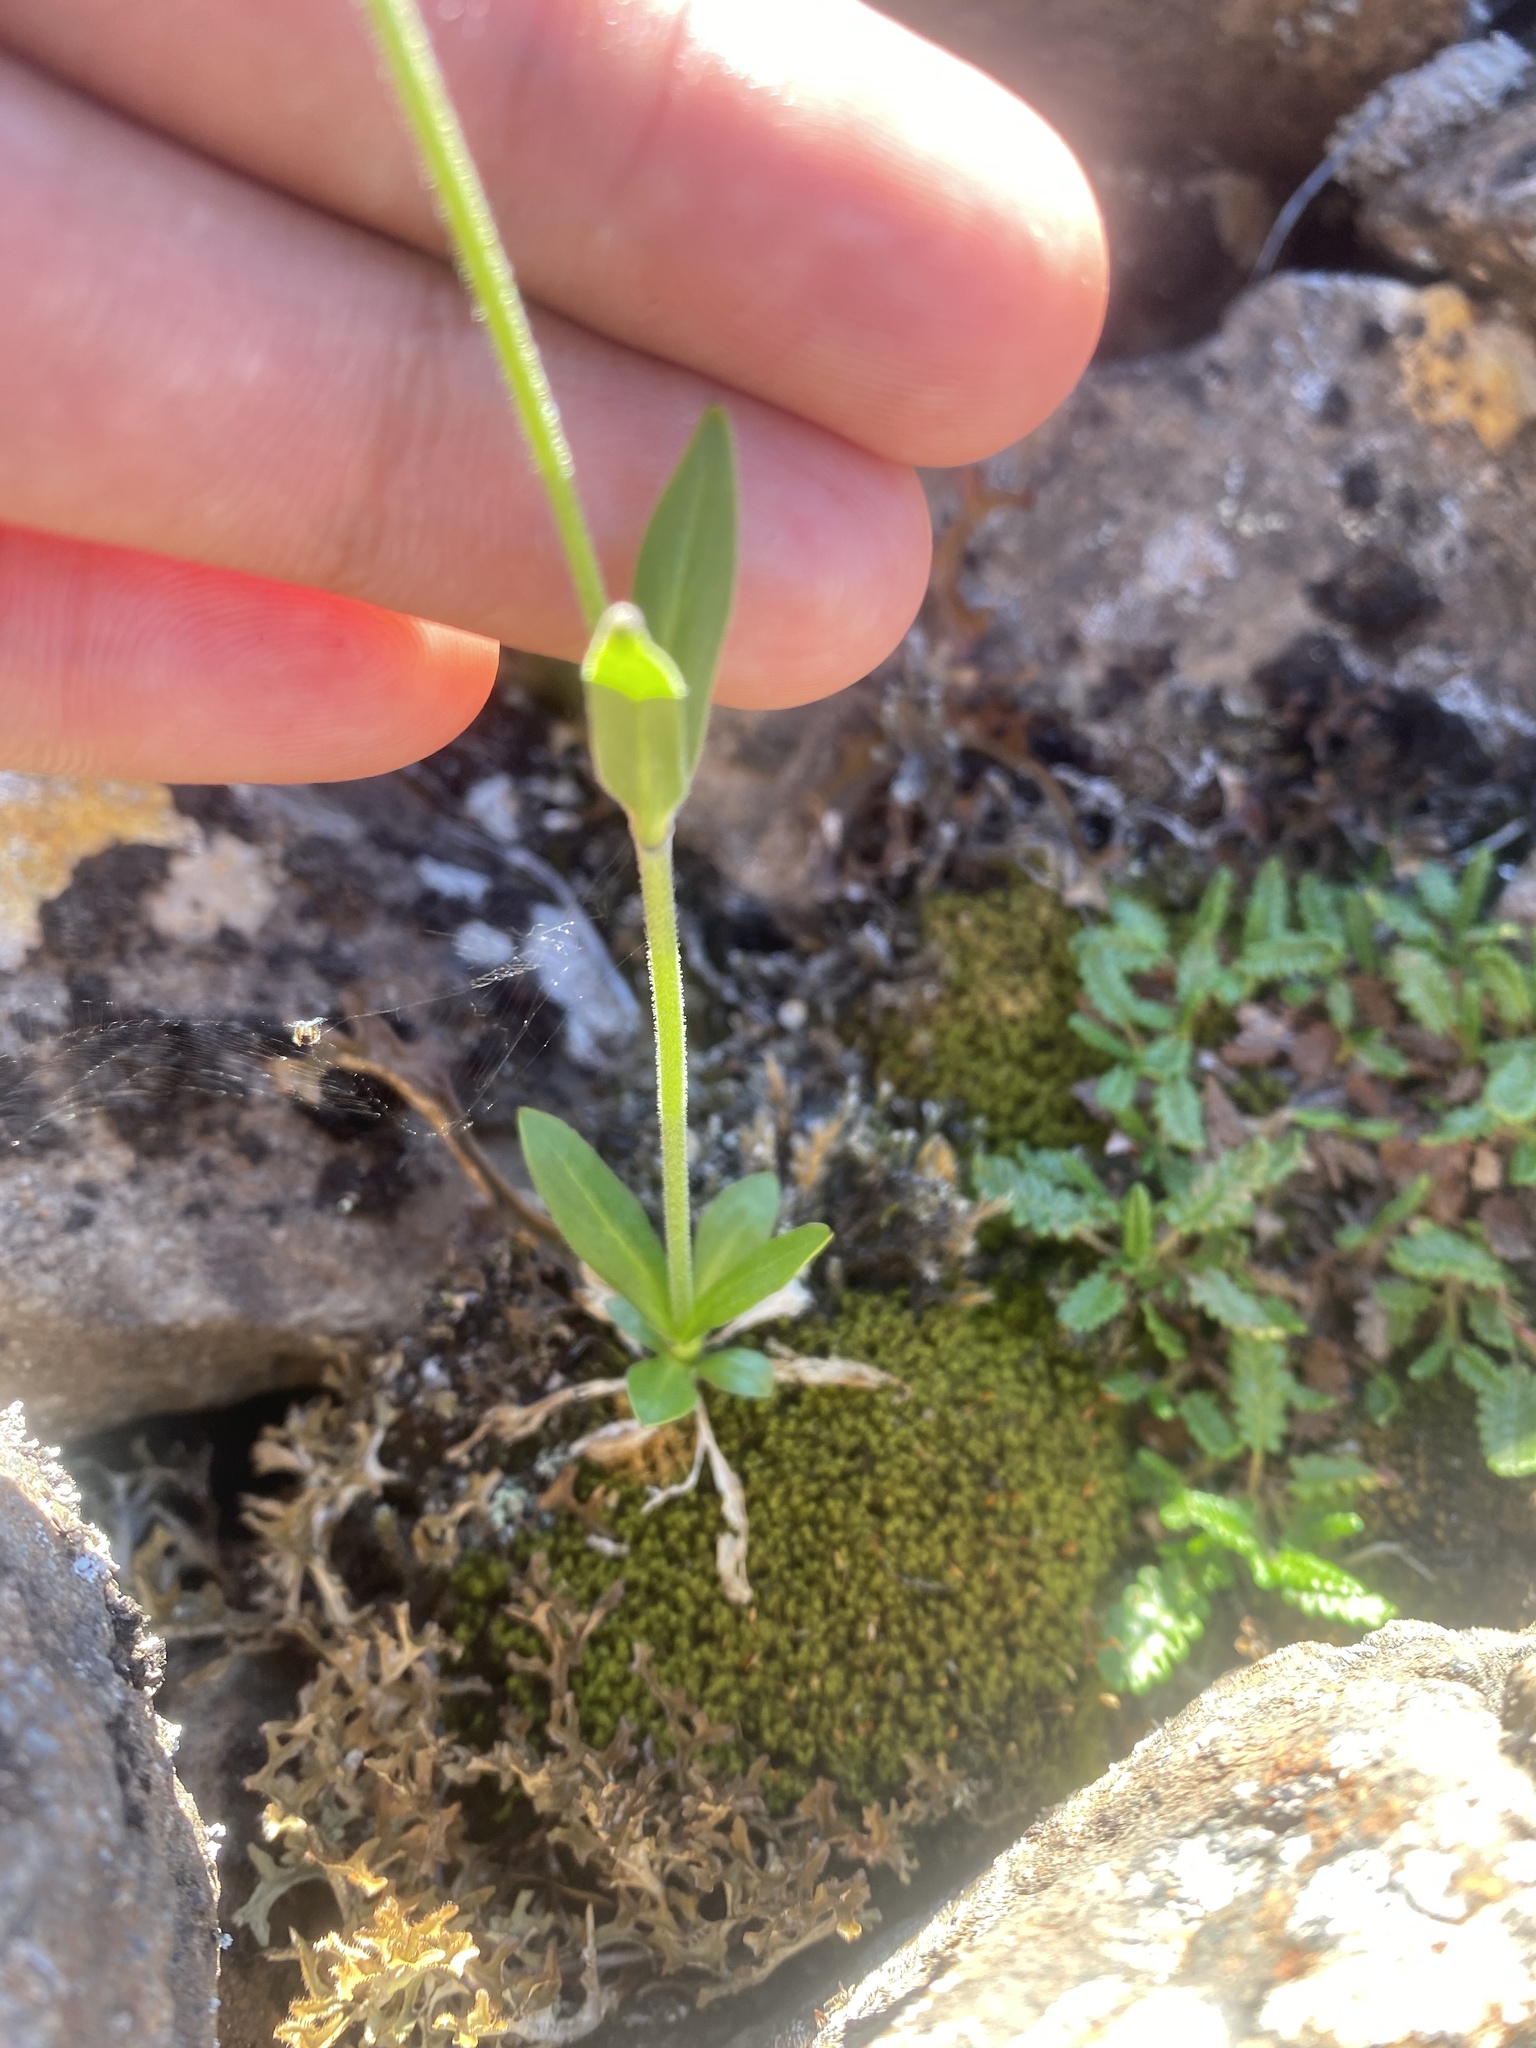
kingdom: Plantae
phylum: Tracheophyta
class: Magnoliopsida
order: Caryophyllales
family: Caryophyllaceae
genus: Silene
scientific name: Silene wahlbergella
